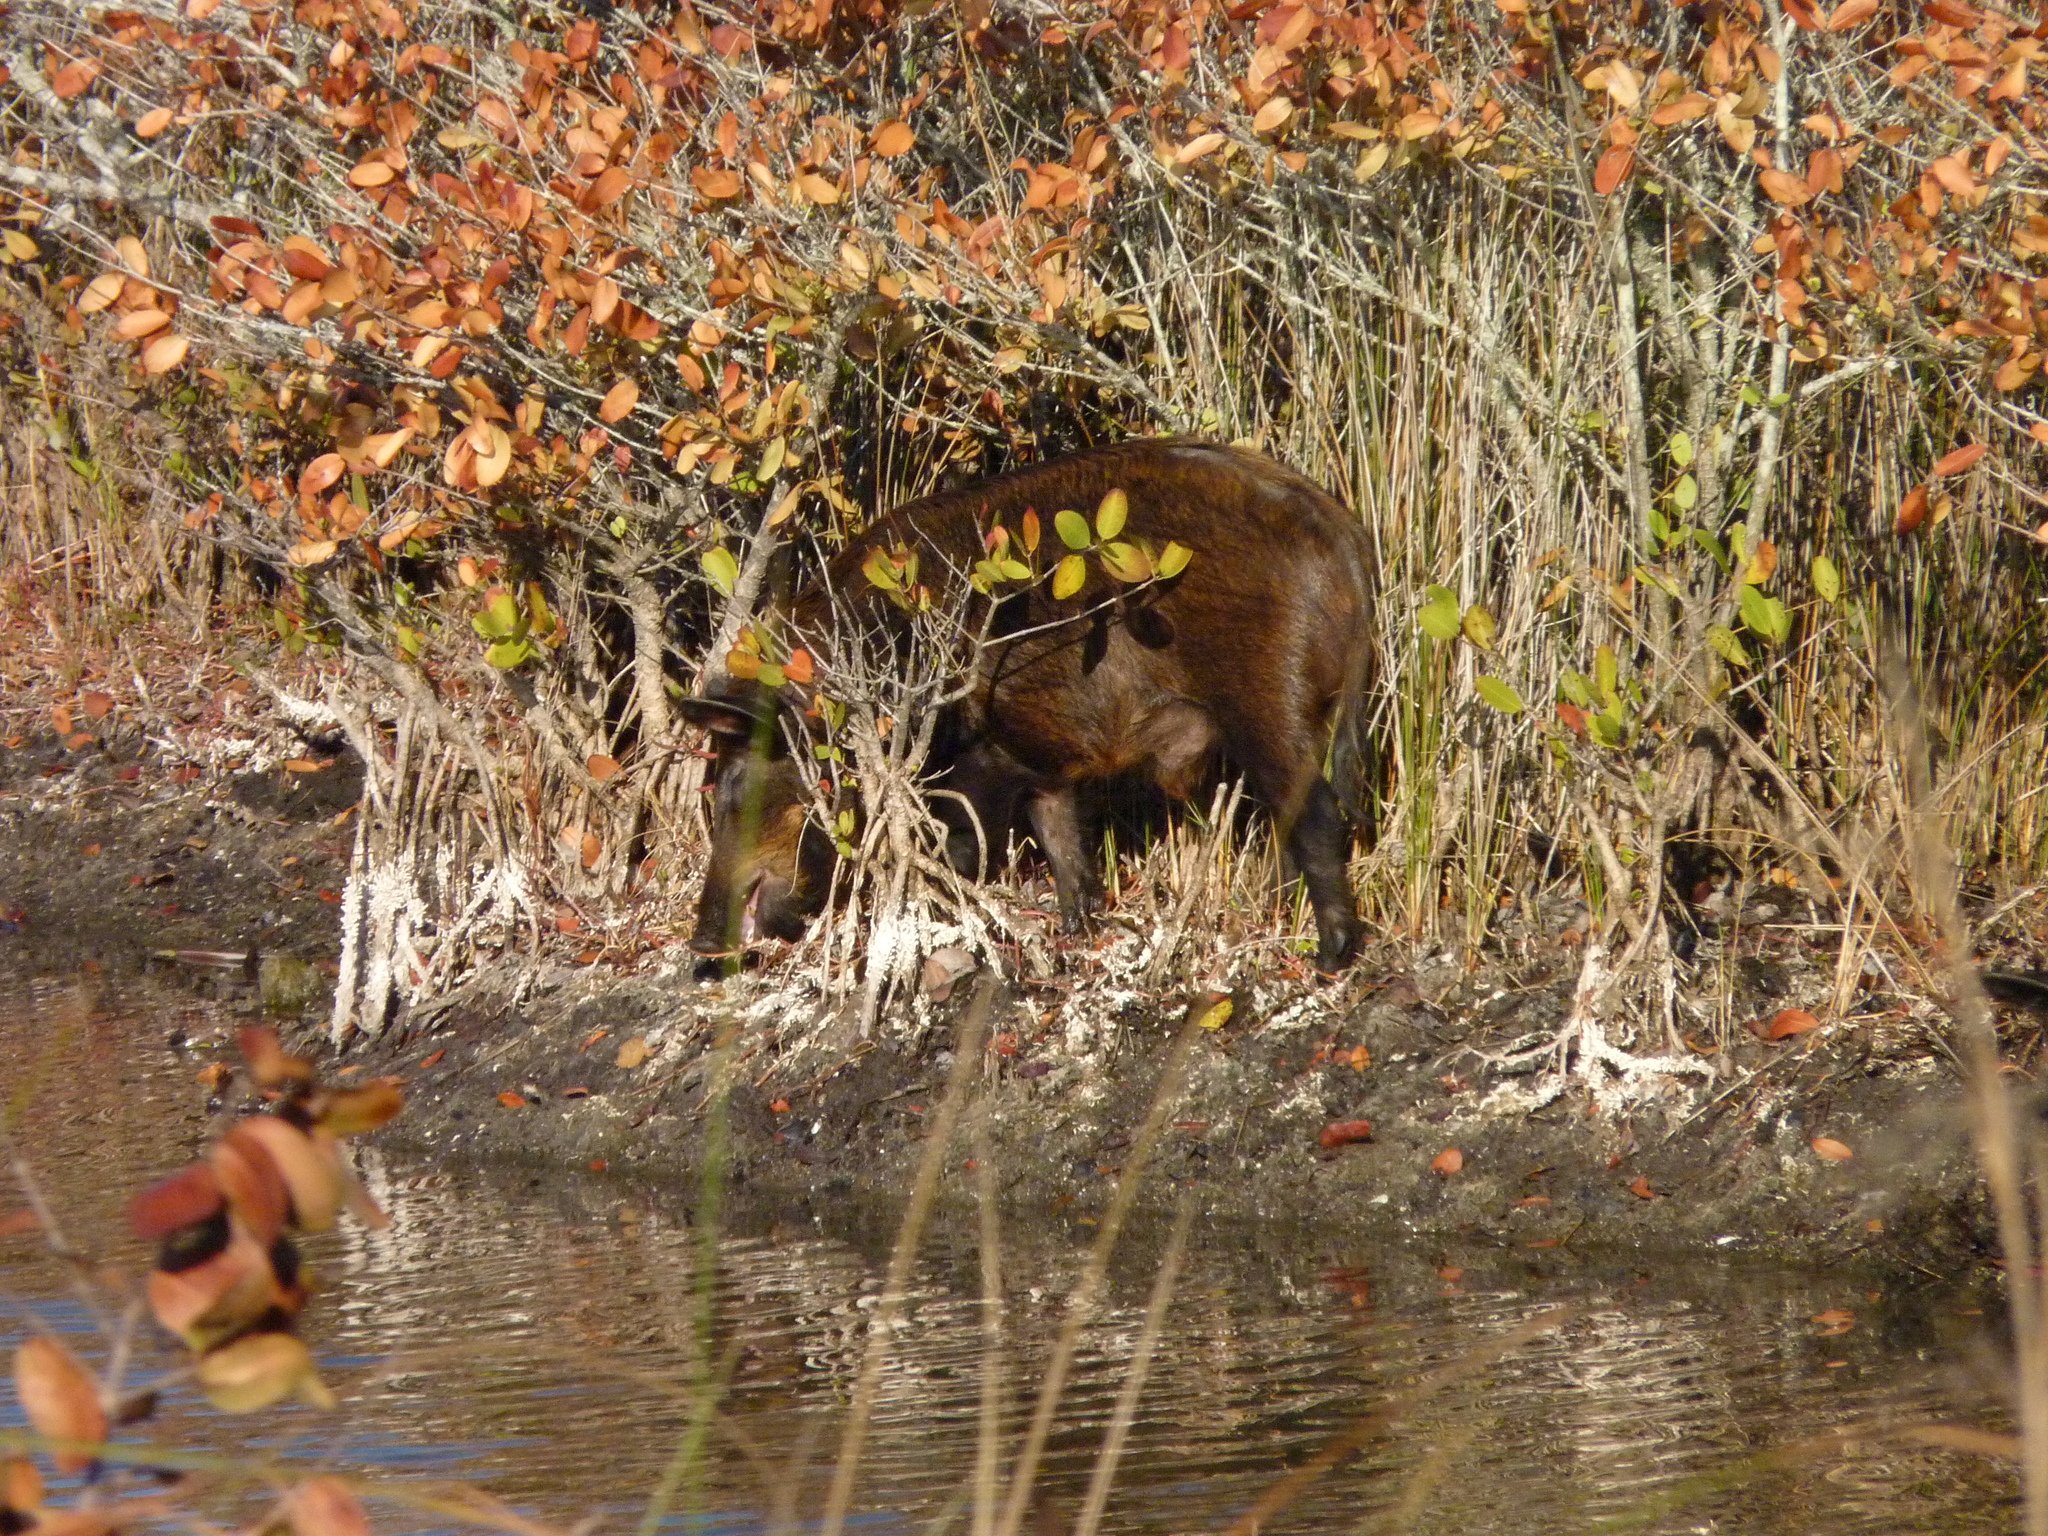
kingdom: Animalia
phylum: Chordata
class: Mammalia
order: Artiodactyla
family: Suidae
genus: Sus
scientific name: Sus scrofa
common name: Wild boar
